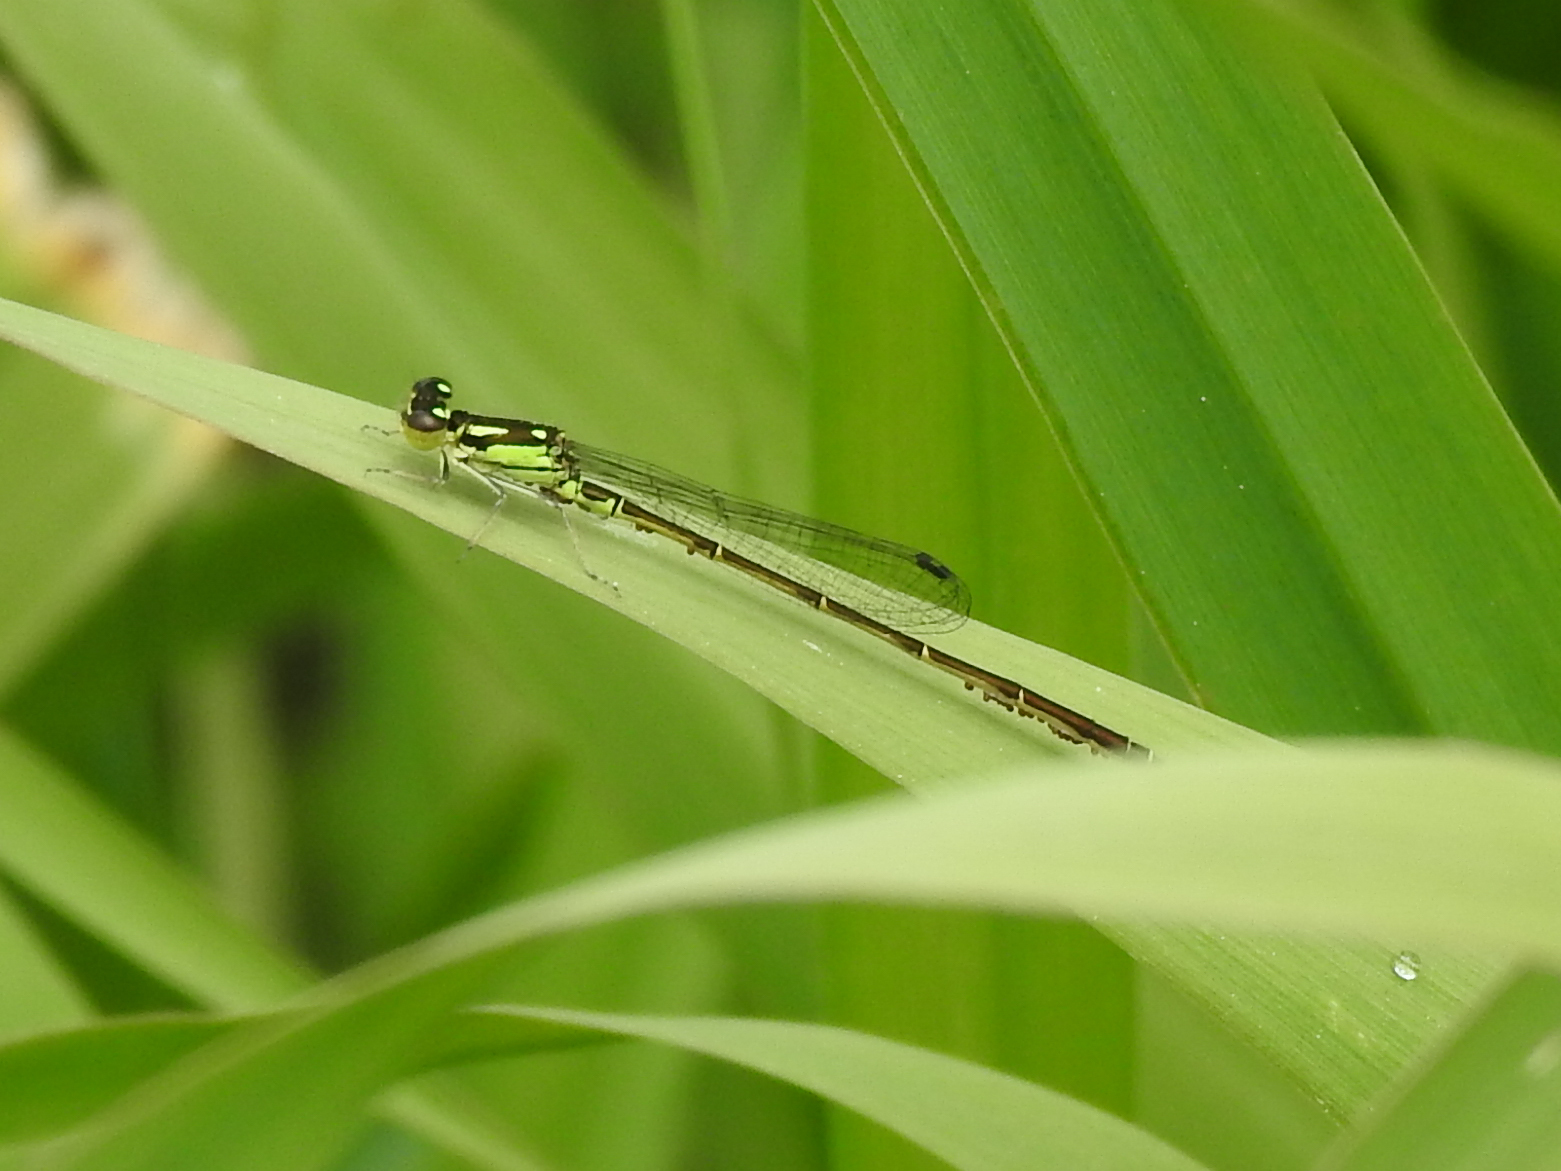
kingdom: Animalia
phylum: Arthropoda
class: Insecta
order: Odonata
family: Coenagrionidae
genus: Ischnura
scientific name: Ischnura posita
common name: Fragile forktail
